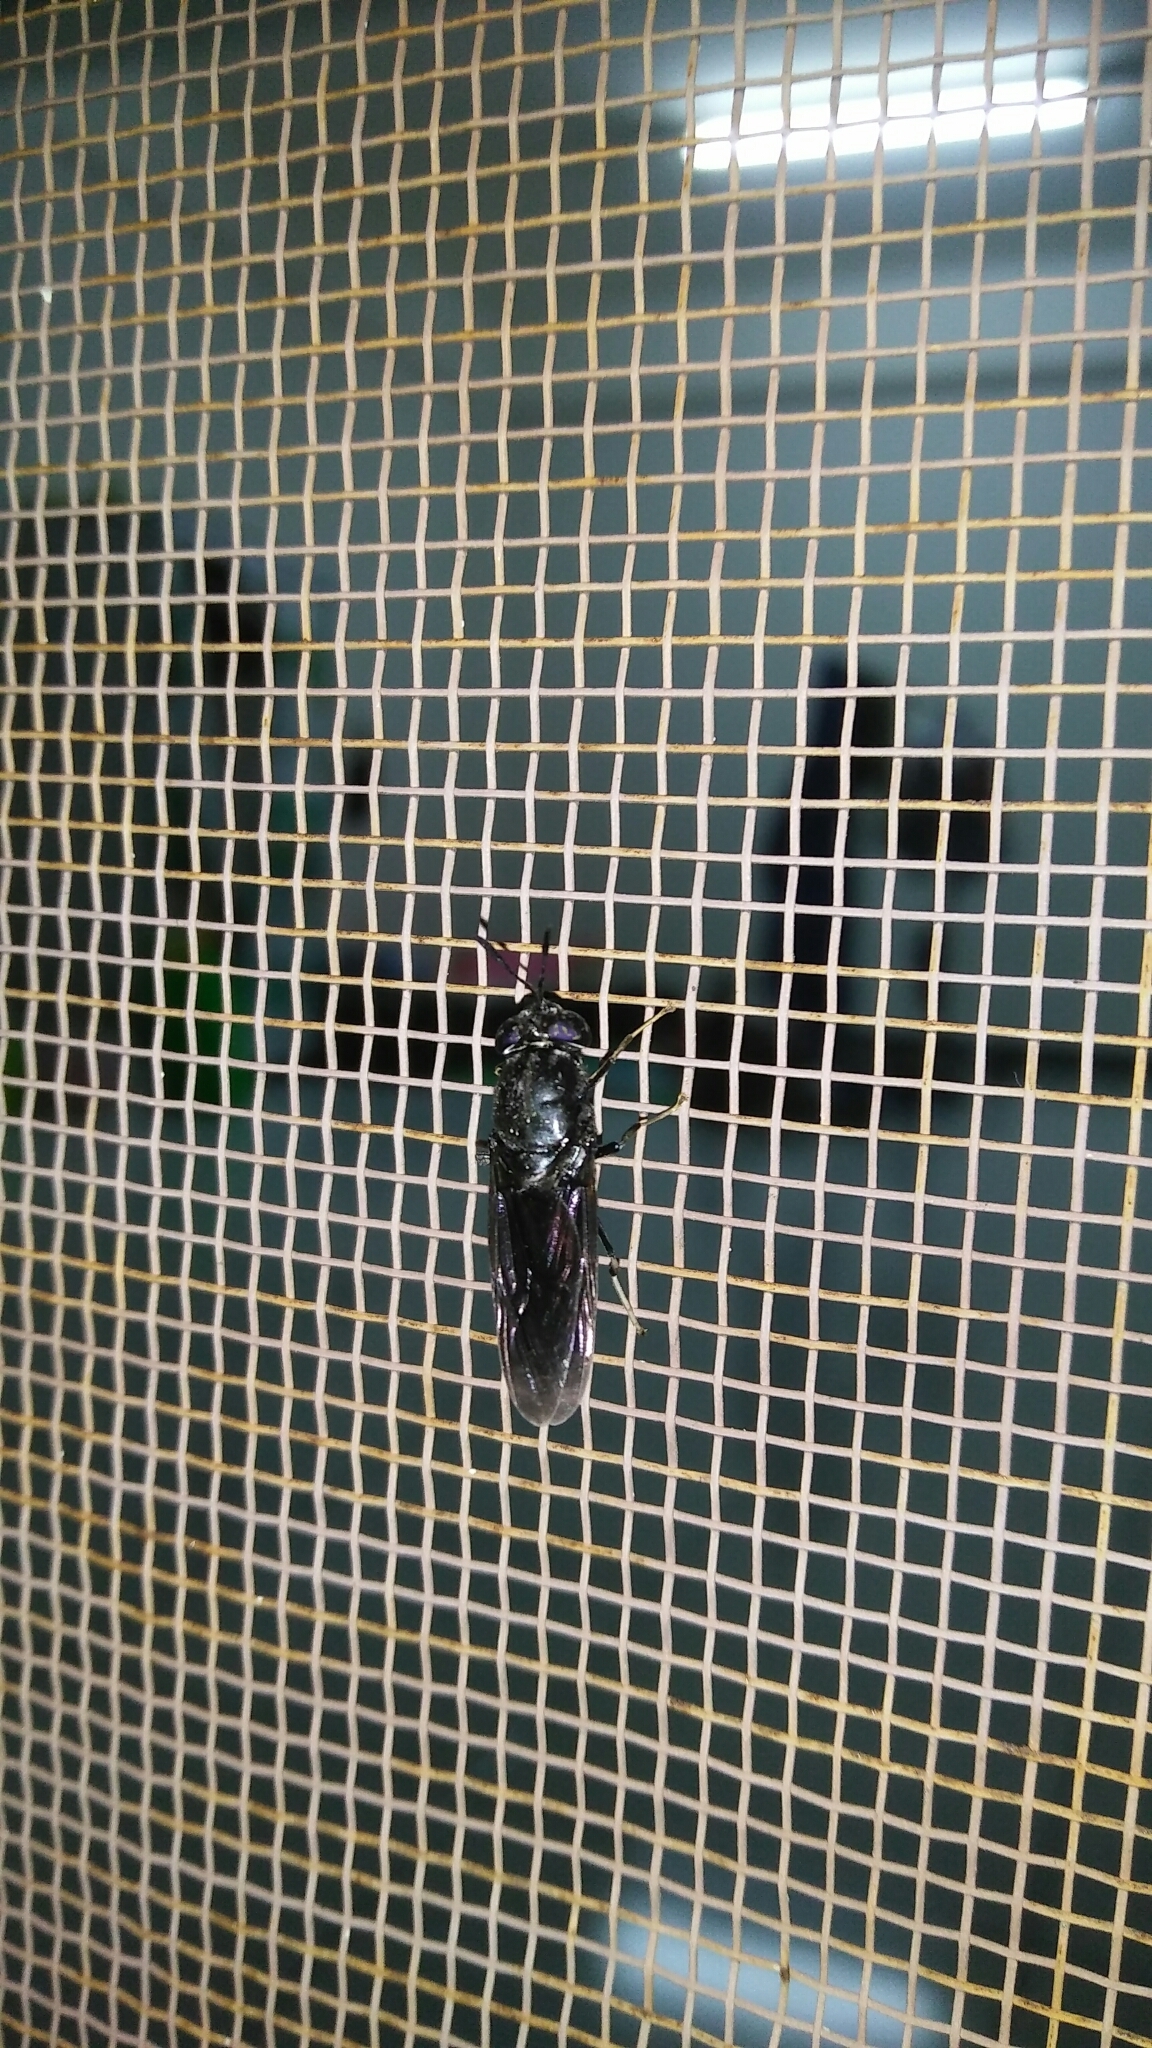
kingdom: Animalia
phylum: Arthropoda
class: Insecta
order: Diptera
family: Stratiomyidae
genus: Hermetia
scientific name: Hermetia illucens
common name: Black soldier fly
